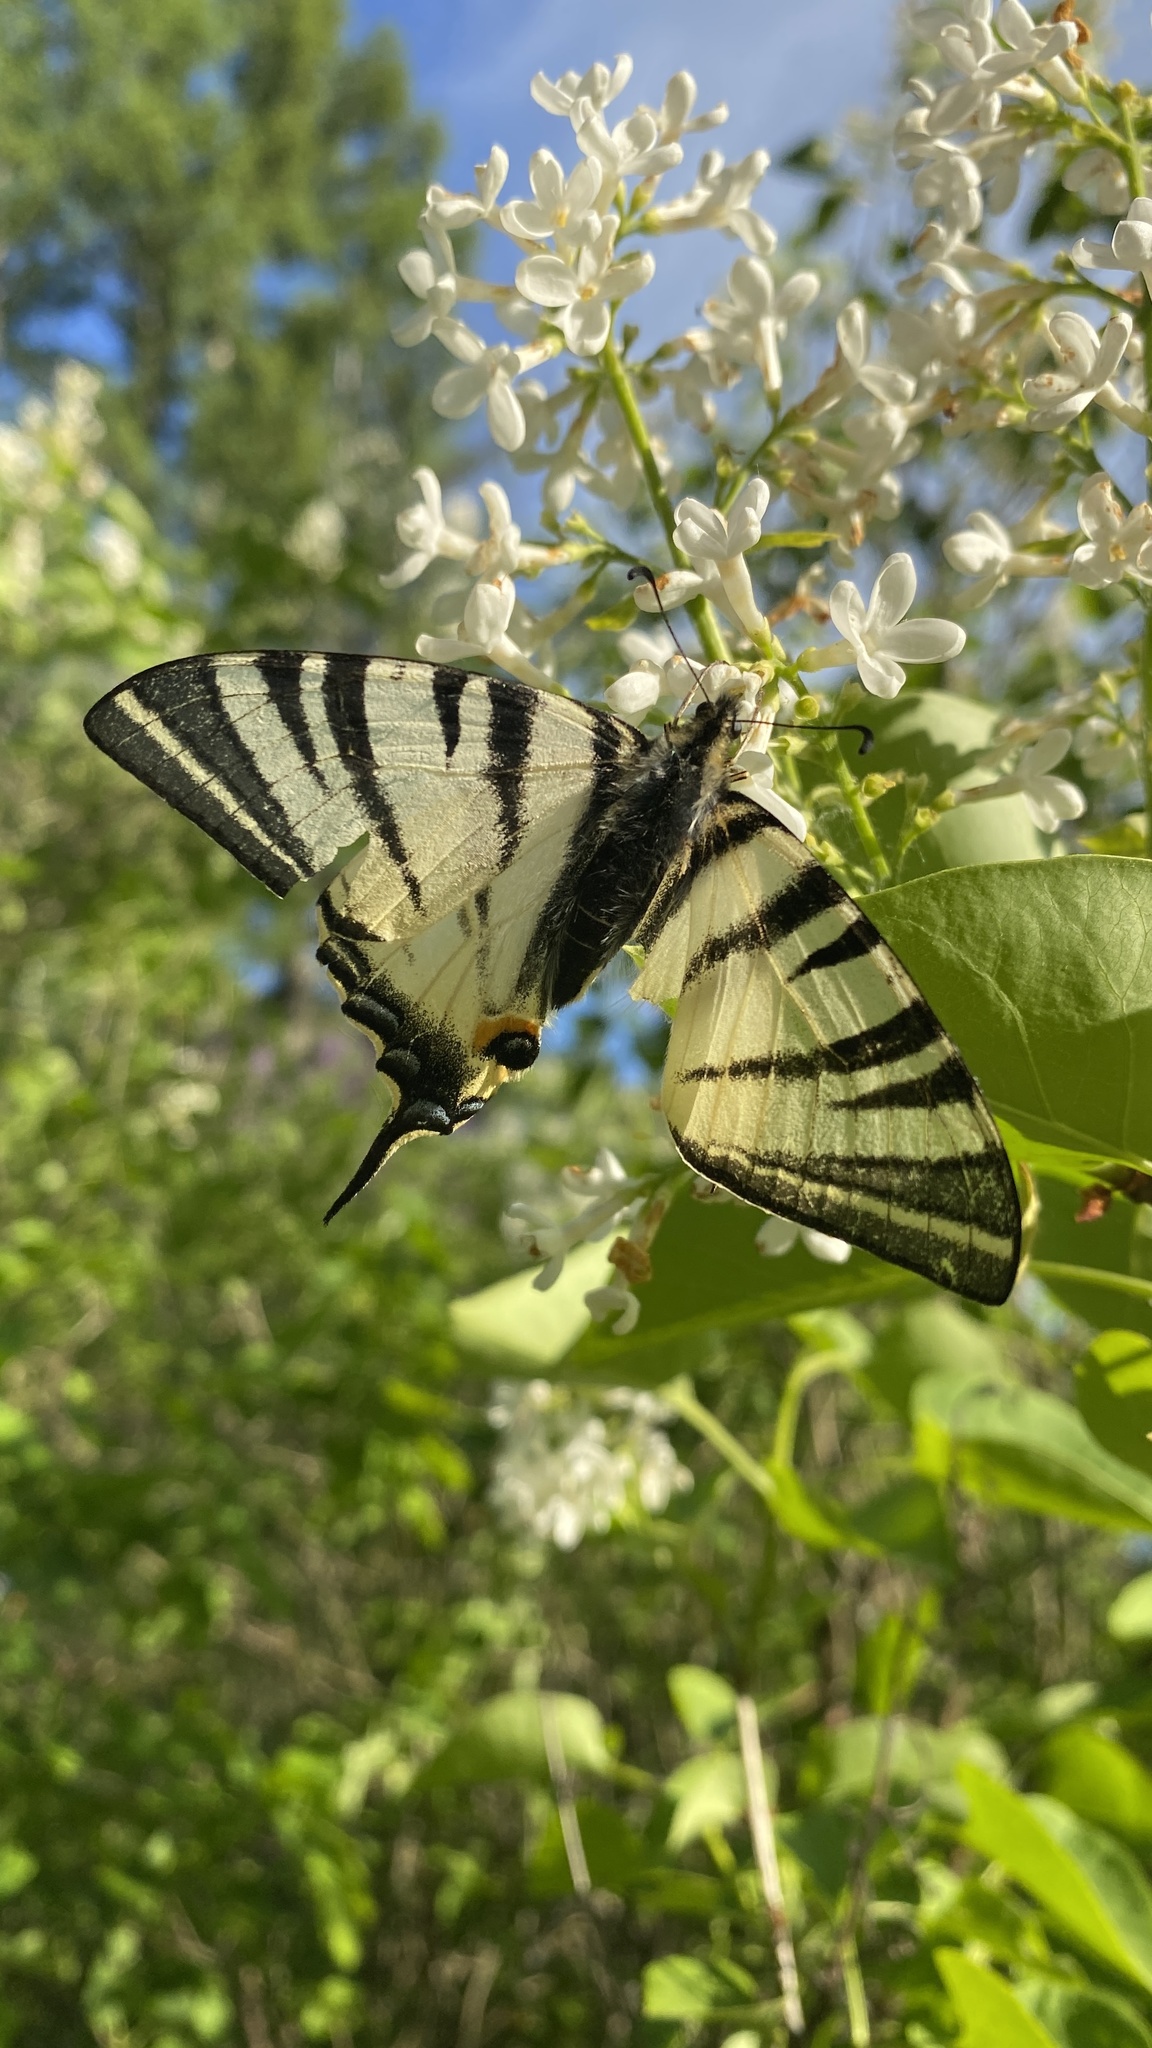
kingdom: Animalia
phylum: Arthropoda
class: Insecta
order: Lepidoptera
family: Papilionidae
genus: Iphiclides
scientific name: Iphiclides podalirius
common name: Scarce swallowtail
